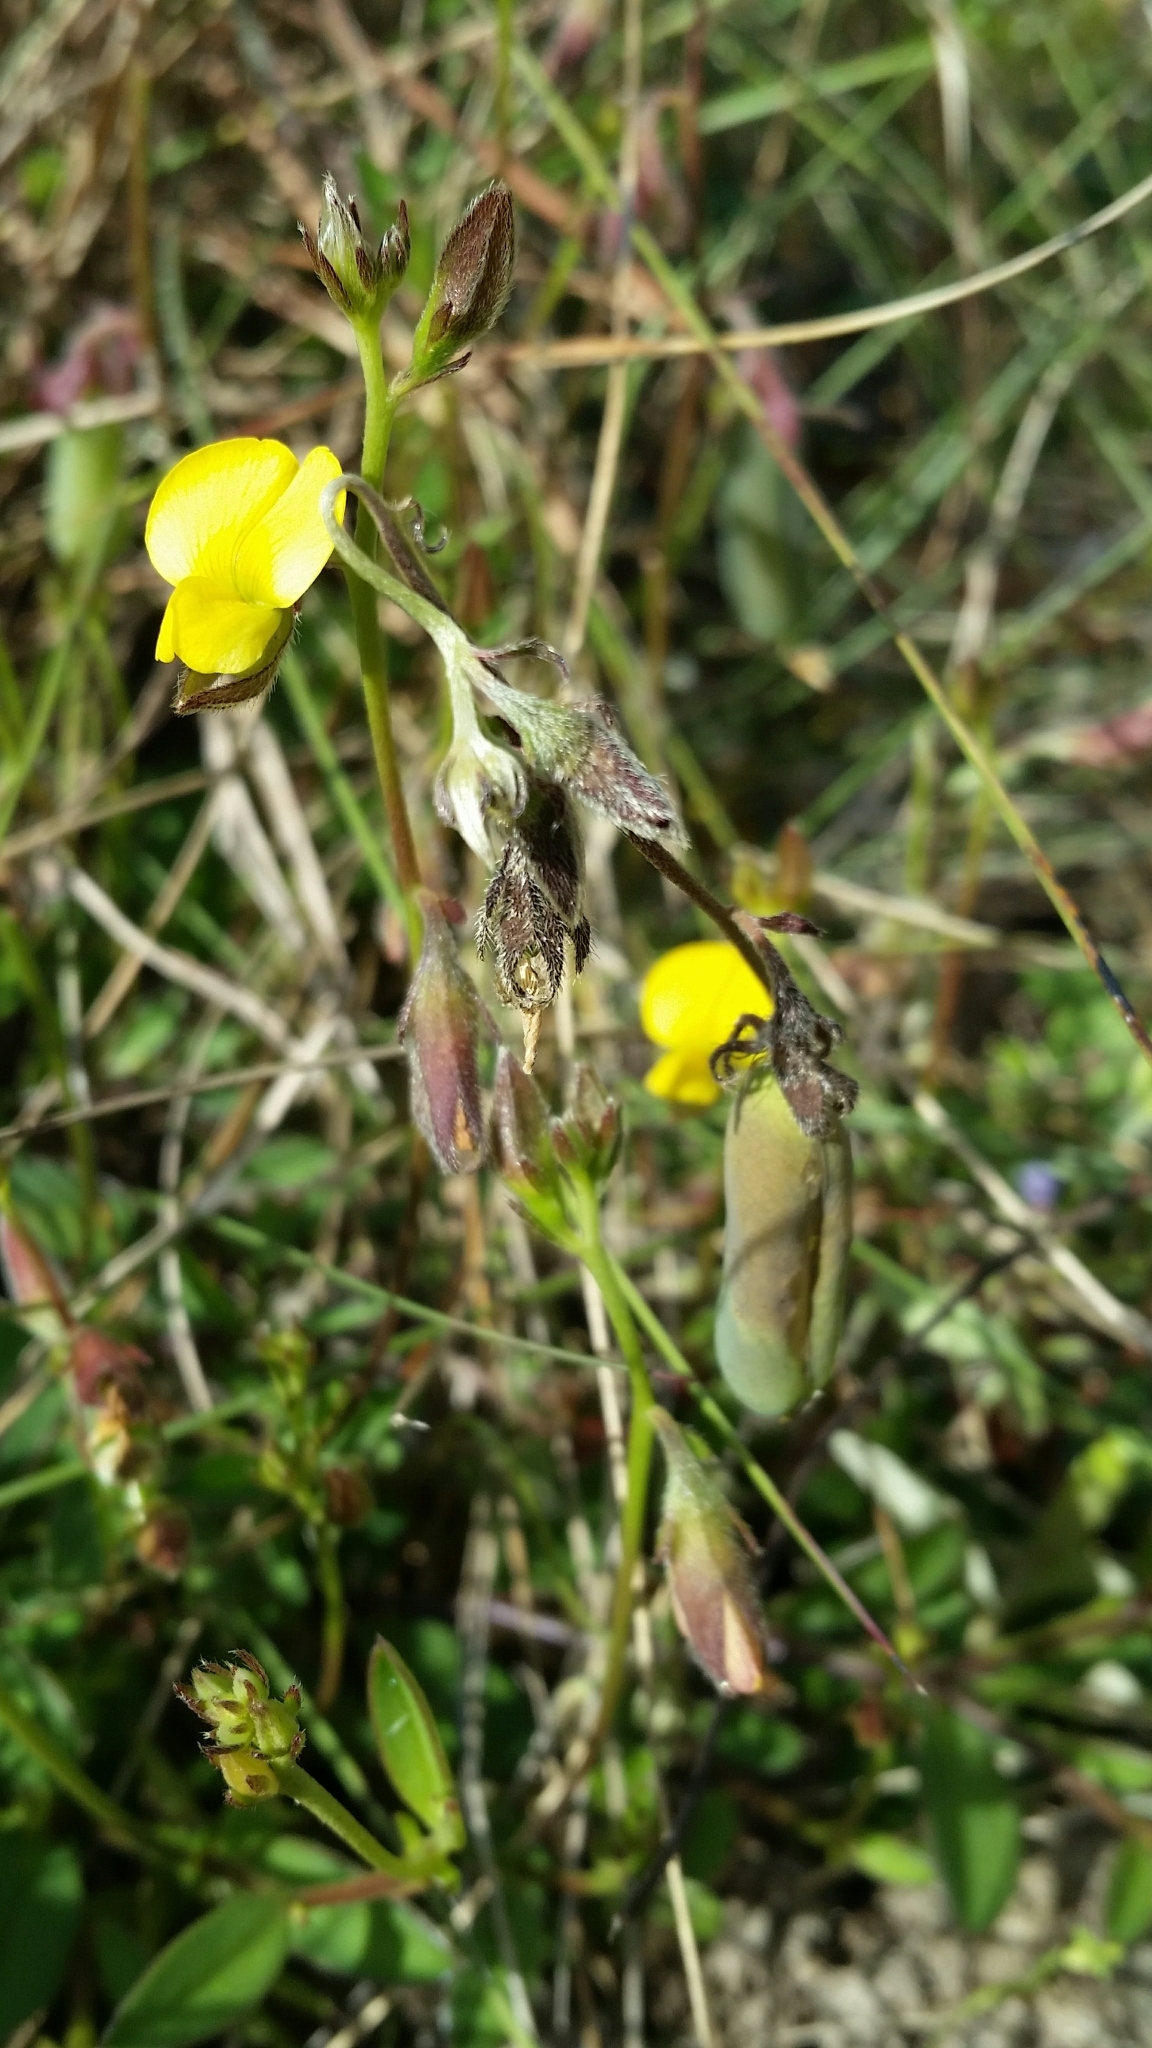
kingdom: Plantae
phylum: Tracheophyta
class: Magnoliopsida
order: Fabales
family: Fabaceae
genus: Crotalaria
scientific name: Crotalaria rotundifolia
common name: Prostrate rattlebox
